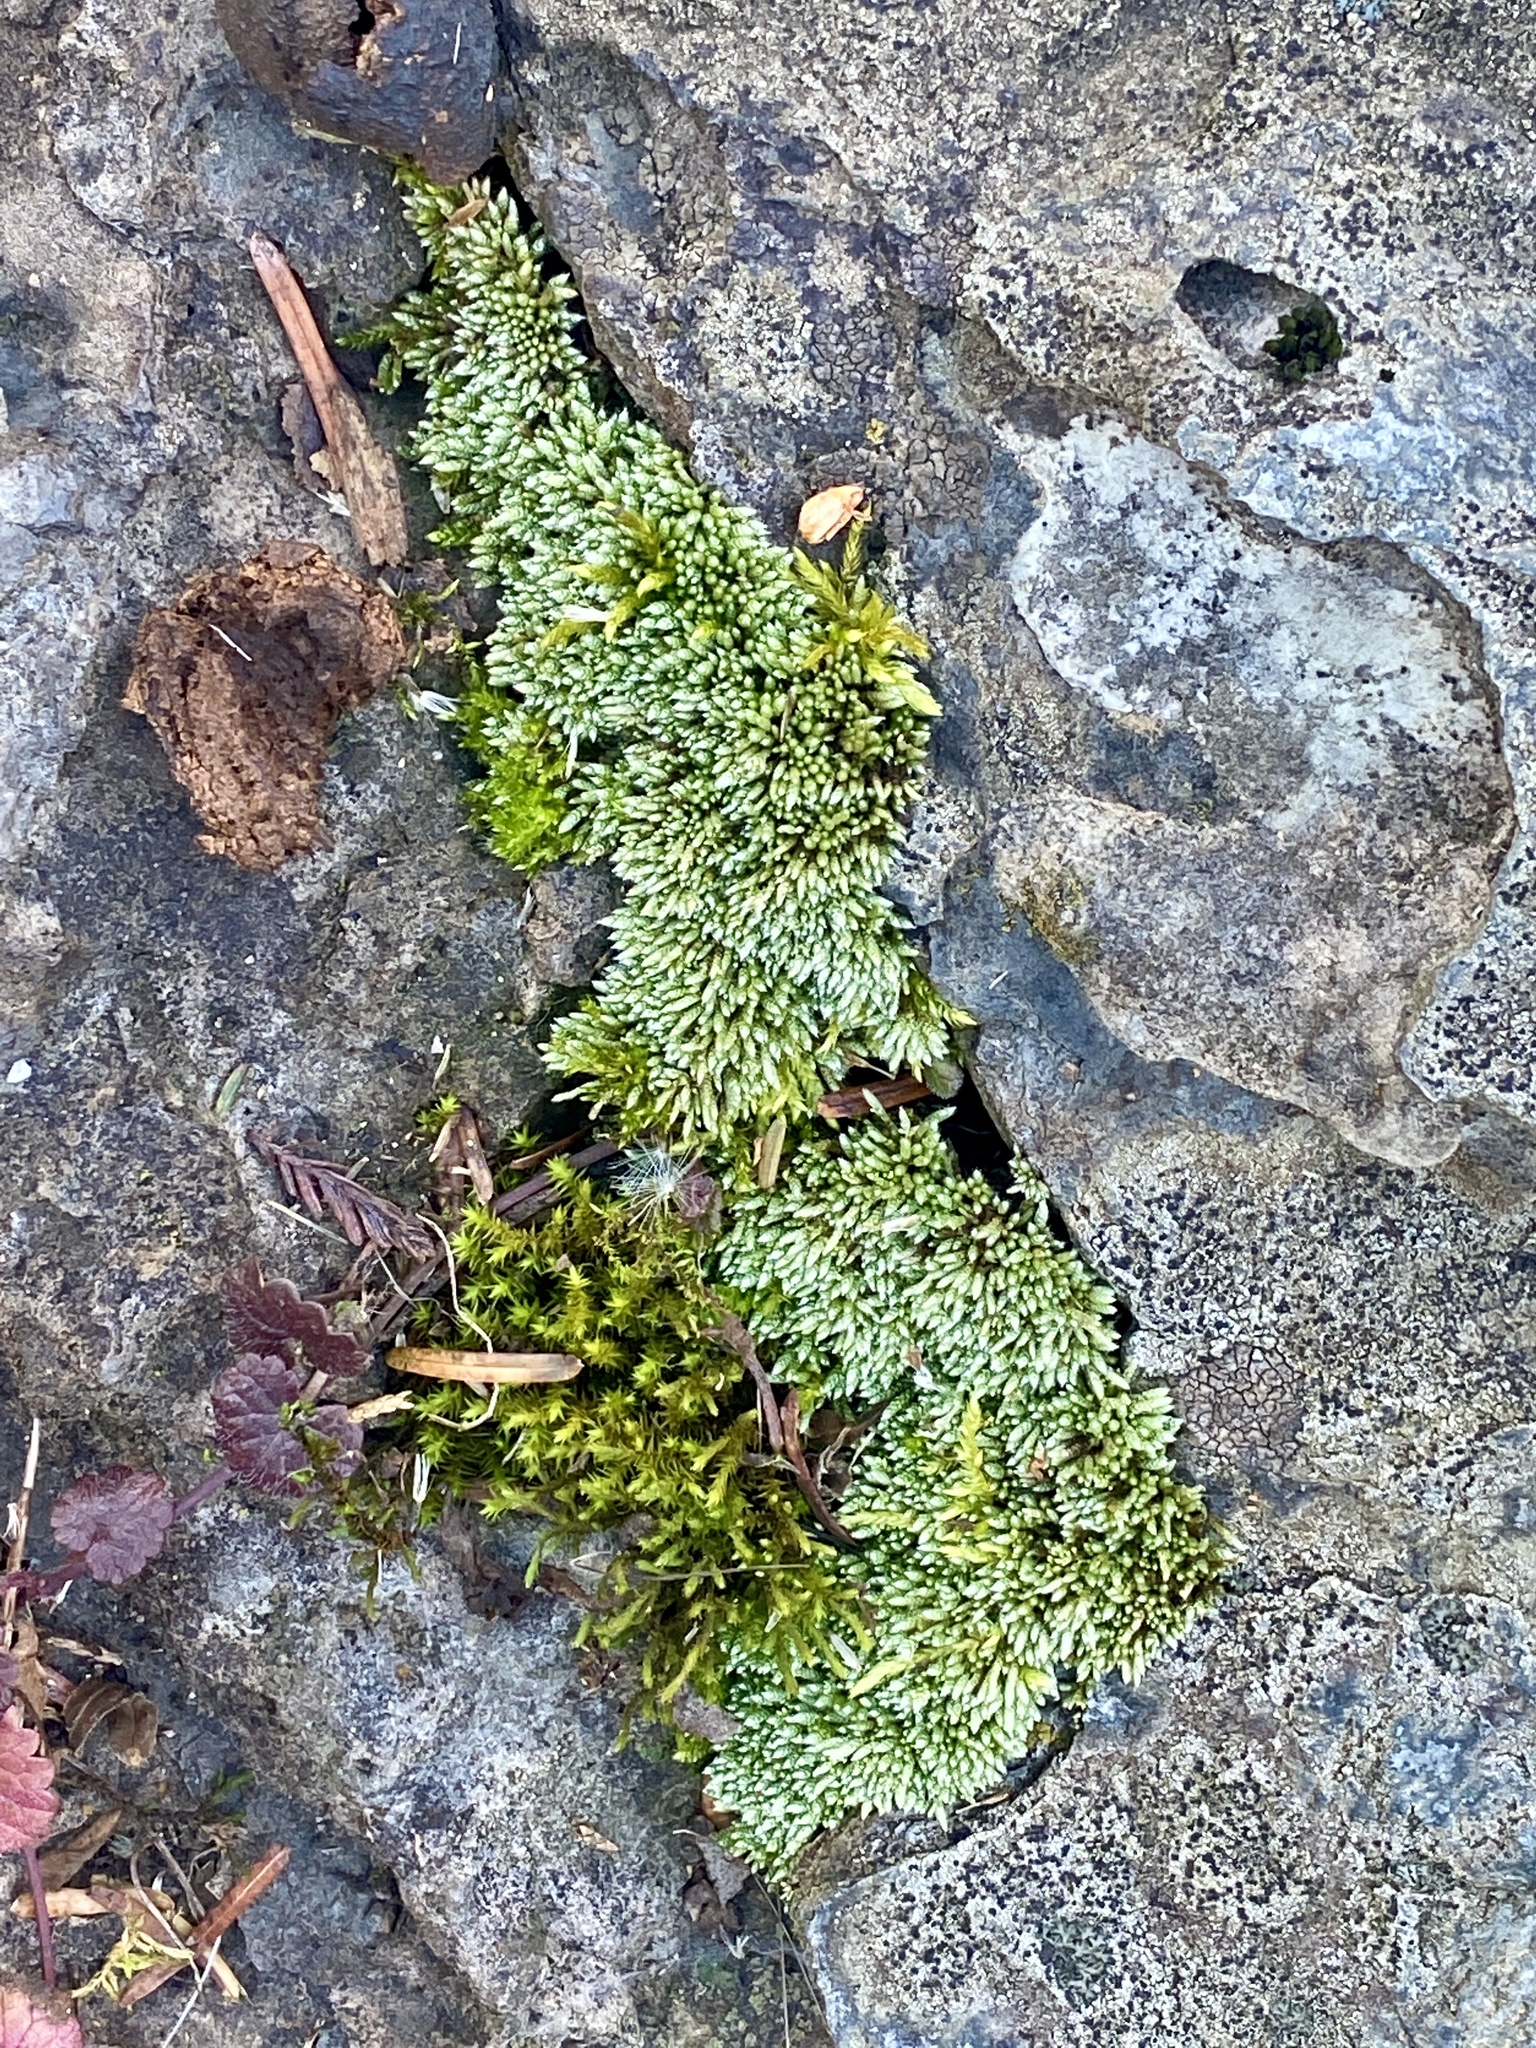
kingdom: Plantae
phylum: Bryophyta
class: Bryopsida
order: Bryales
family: Bryaceae
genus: Bryum
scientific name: Bryum argenteum
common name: Silver-moss
